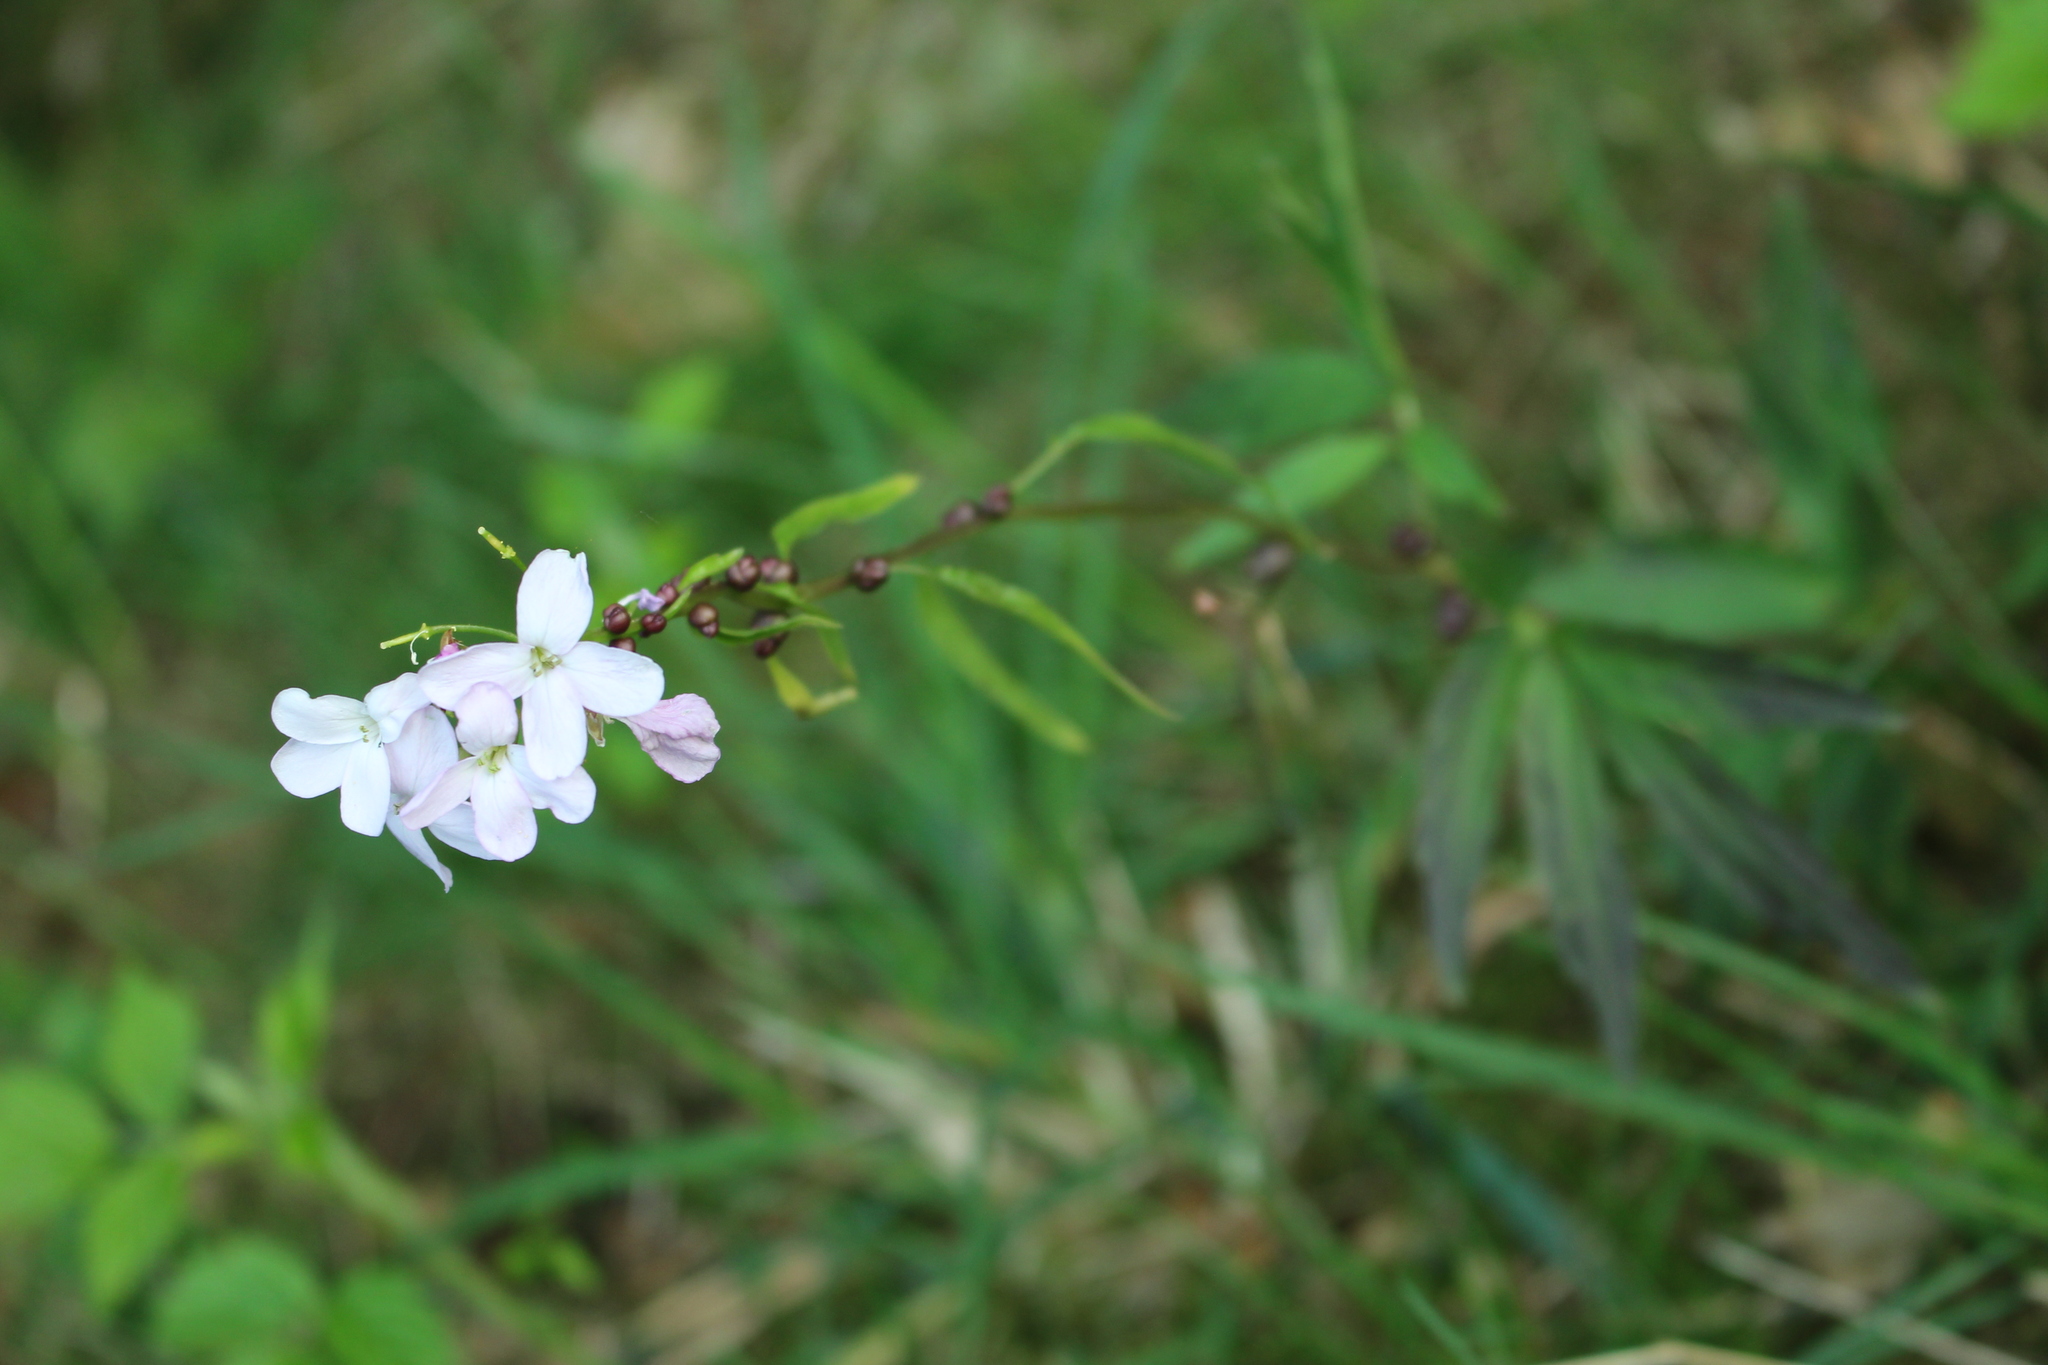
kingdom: Plantae
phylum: Tracheophyta
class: Magnoliopsida
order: Brassicales
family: Brassicaceae
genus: Cardamine
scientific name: Cardamine bulbifera
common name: Coralroot bittercress
